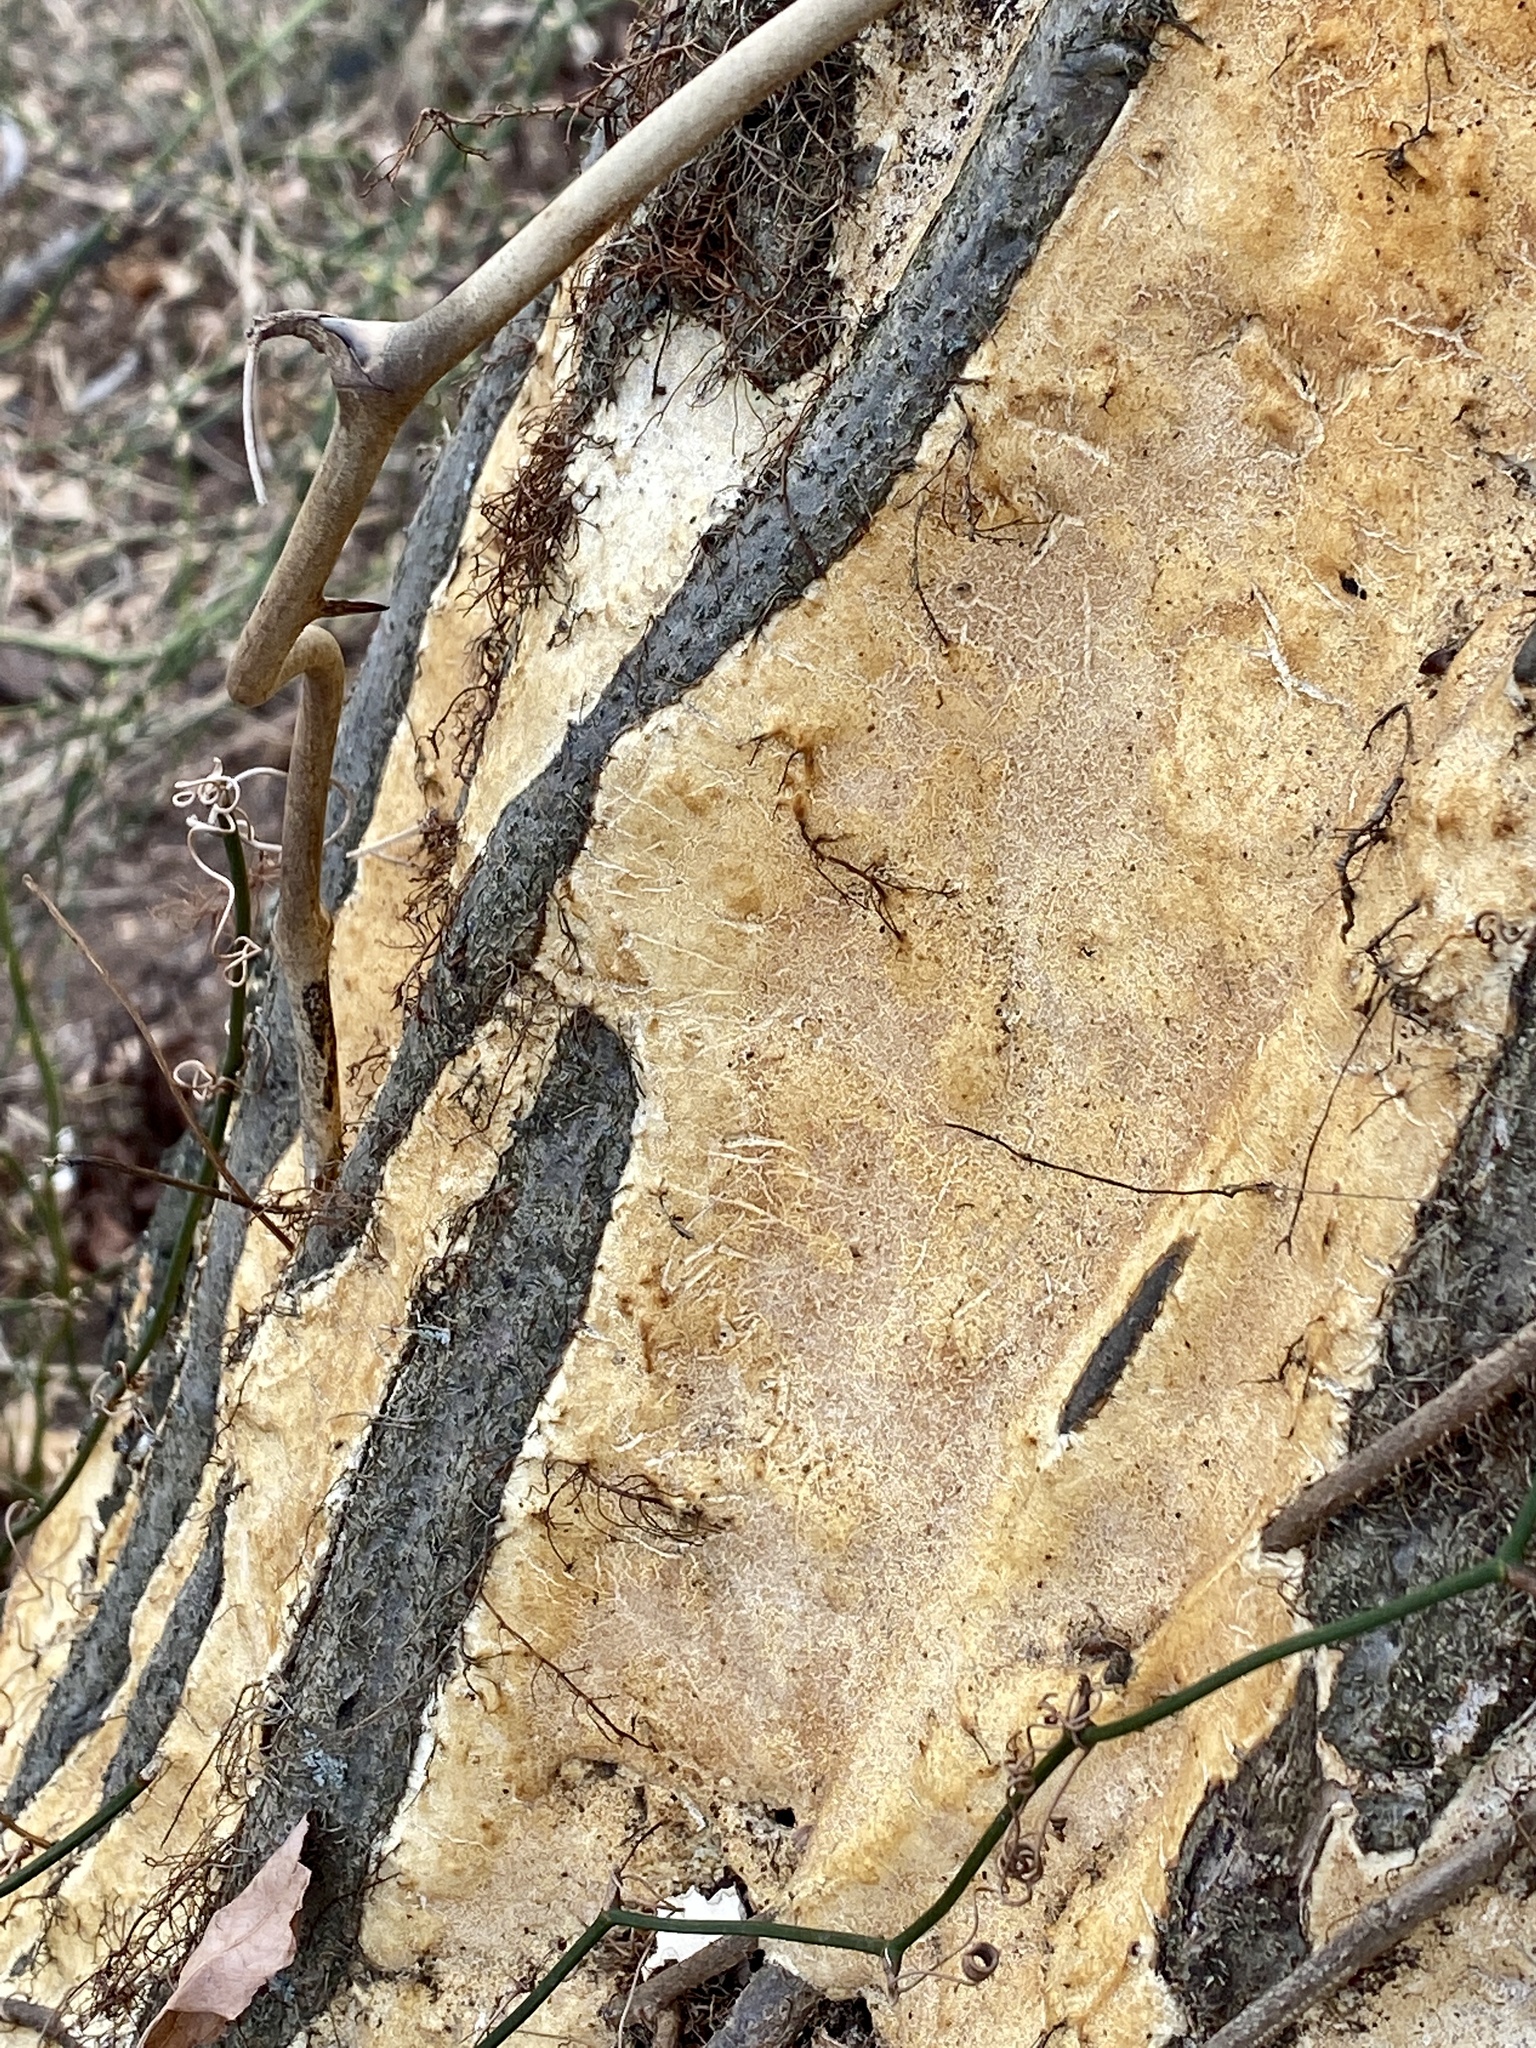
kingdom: Fungi
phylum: Basidiomycota
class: Agaricomycetes
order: Polyporales
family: Polyporaceae
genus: Poriella
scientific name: Poriella subacida
